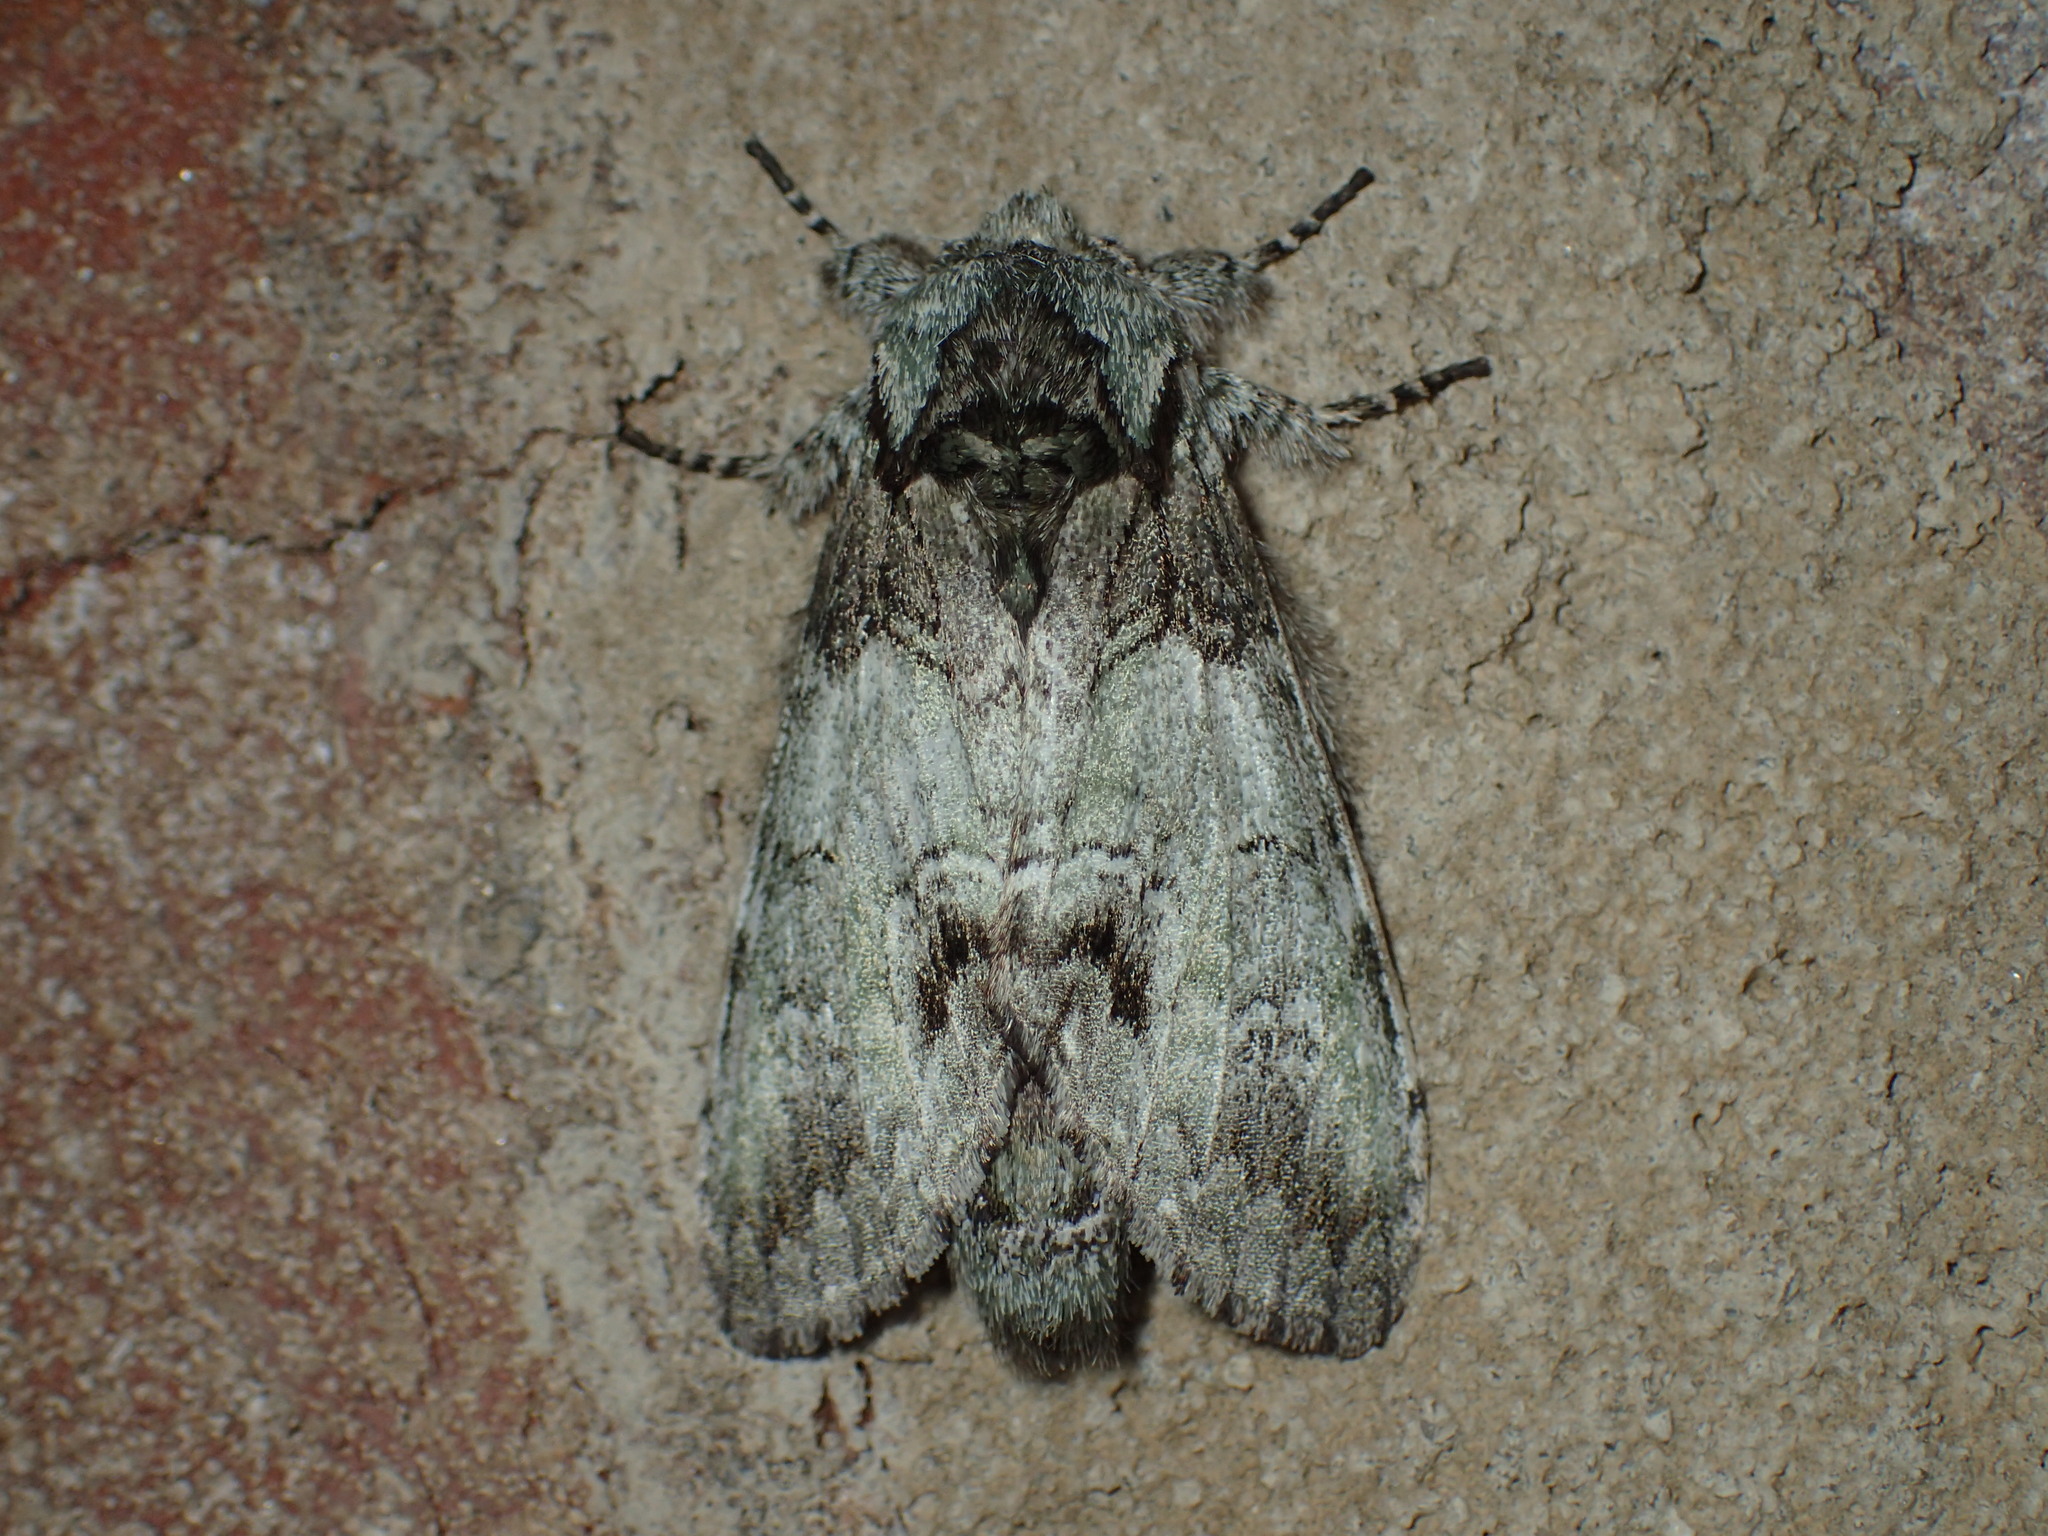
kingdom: Animalia
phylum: Arthropoda
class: Insecta
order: Lepidoptera
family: Notodontidae
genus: Macrurocampa
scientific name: Macrurocampa marthesia
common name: Mottled prominent
